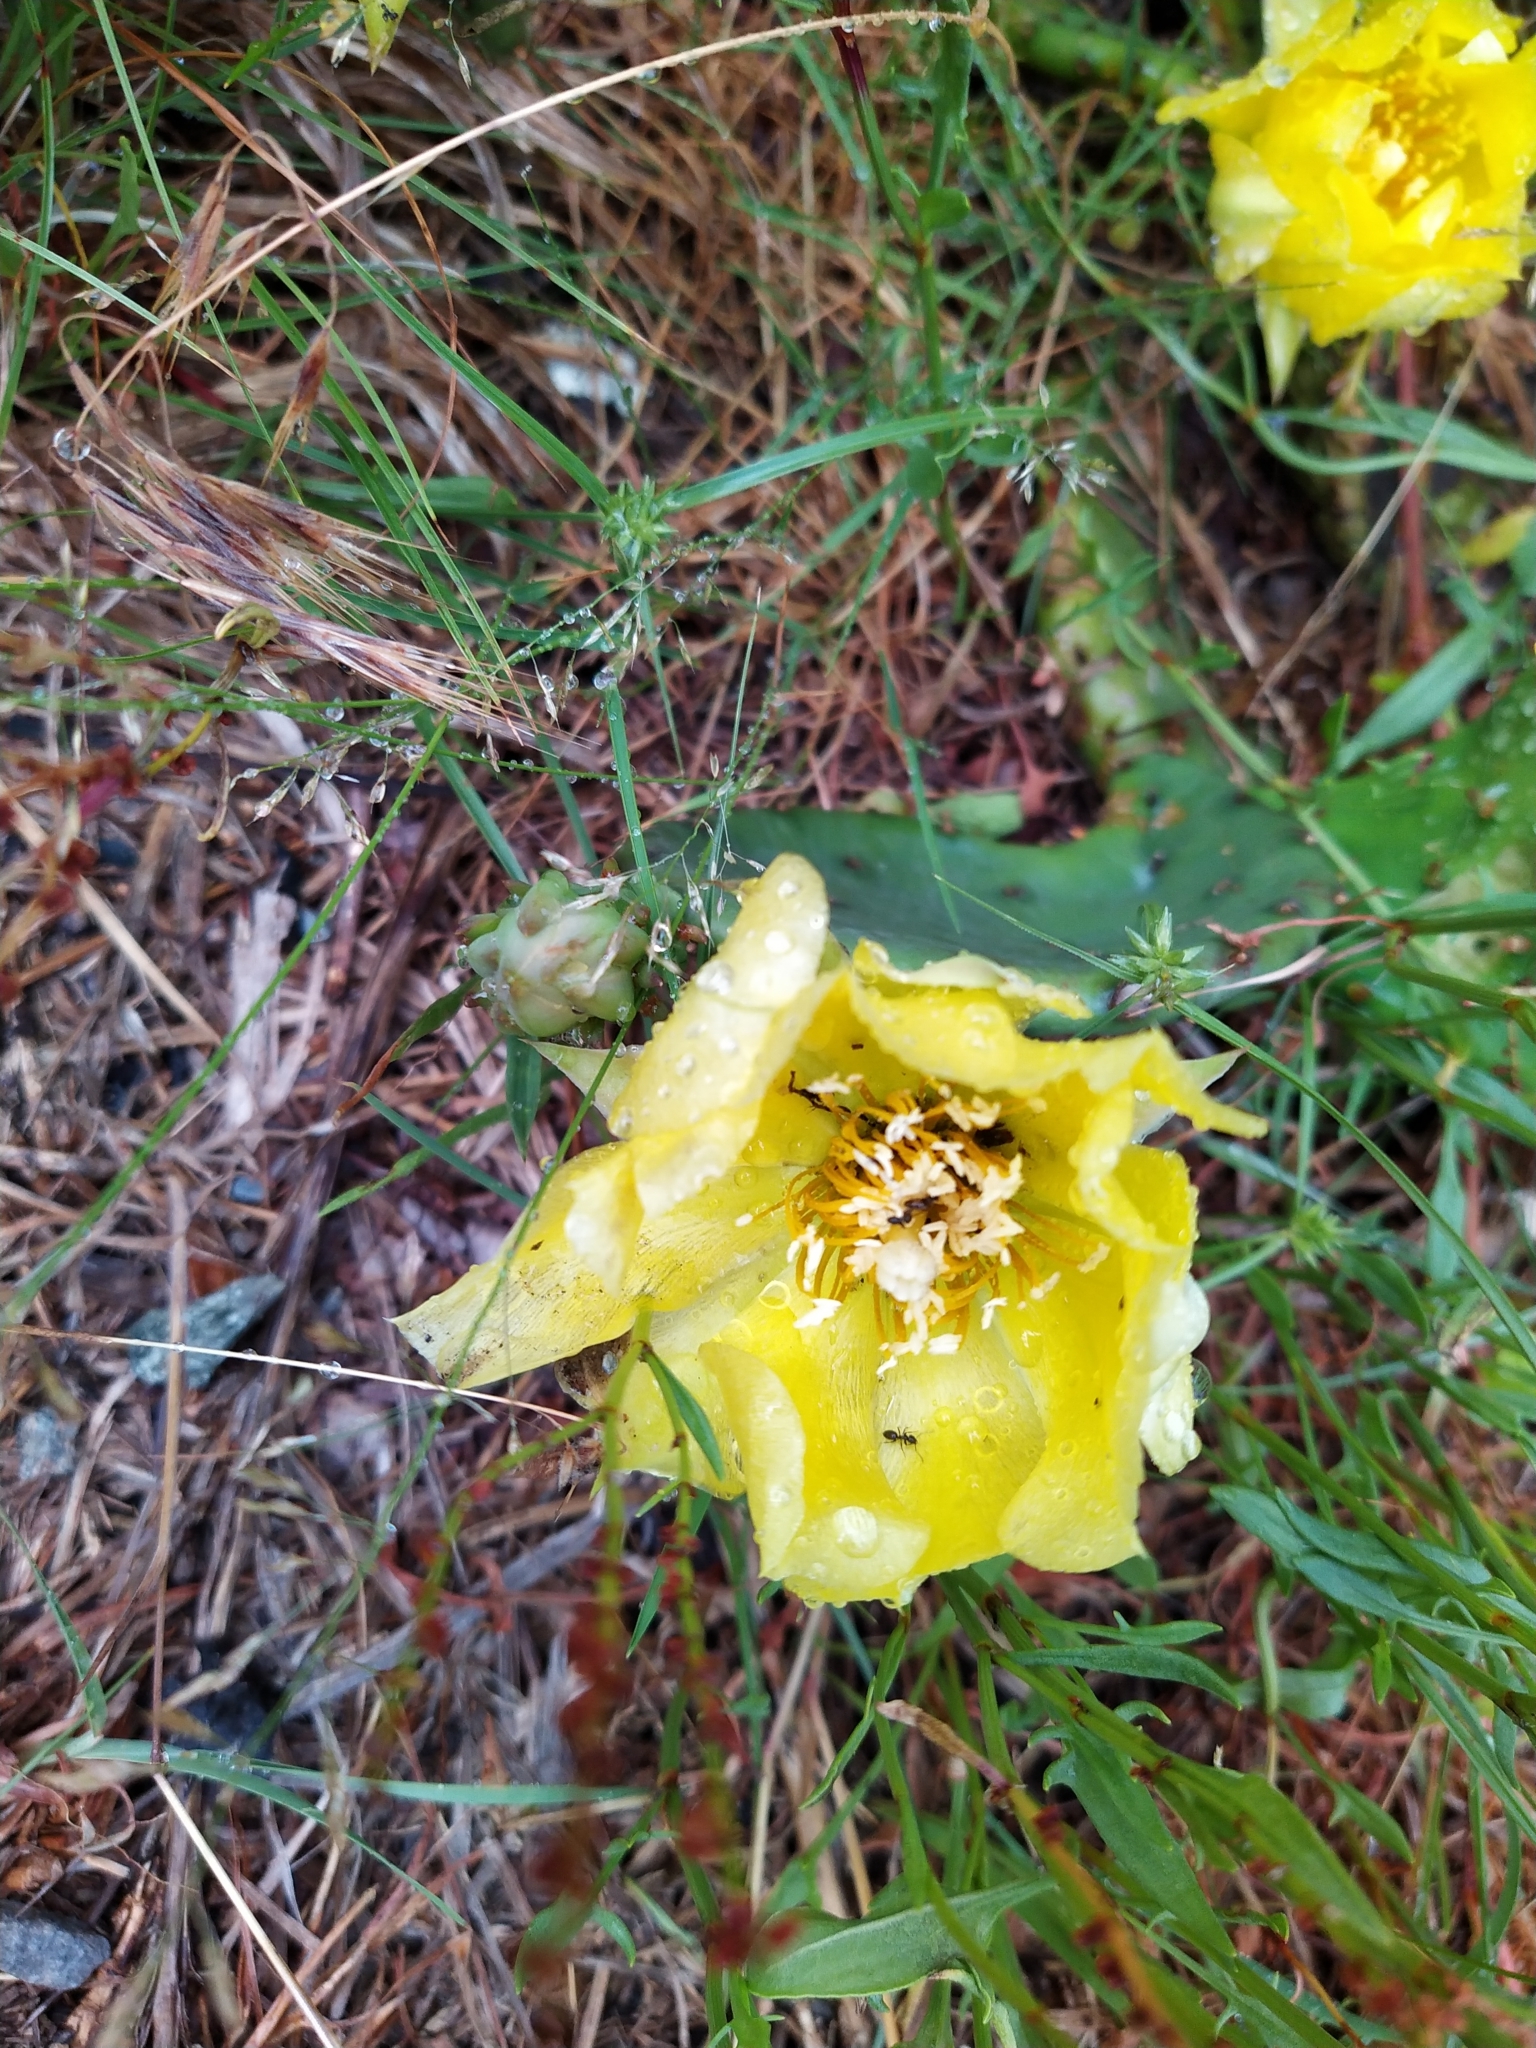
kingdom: Plantae
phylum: Tracheophyta
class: Magnoliopsida
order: Caryophyllales
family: Cactaceae
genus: Opuntia
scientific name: Opuntia humifusa
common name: Eastern prickly-pear
